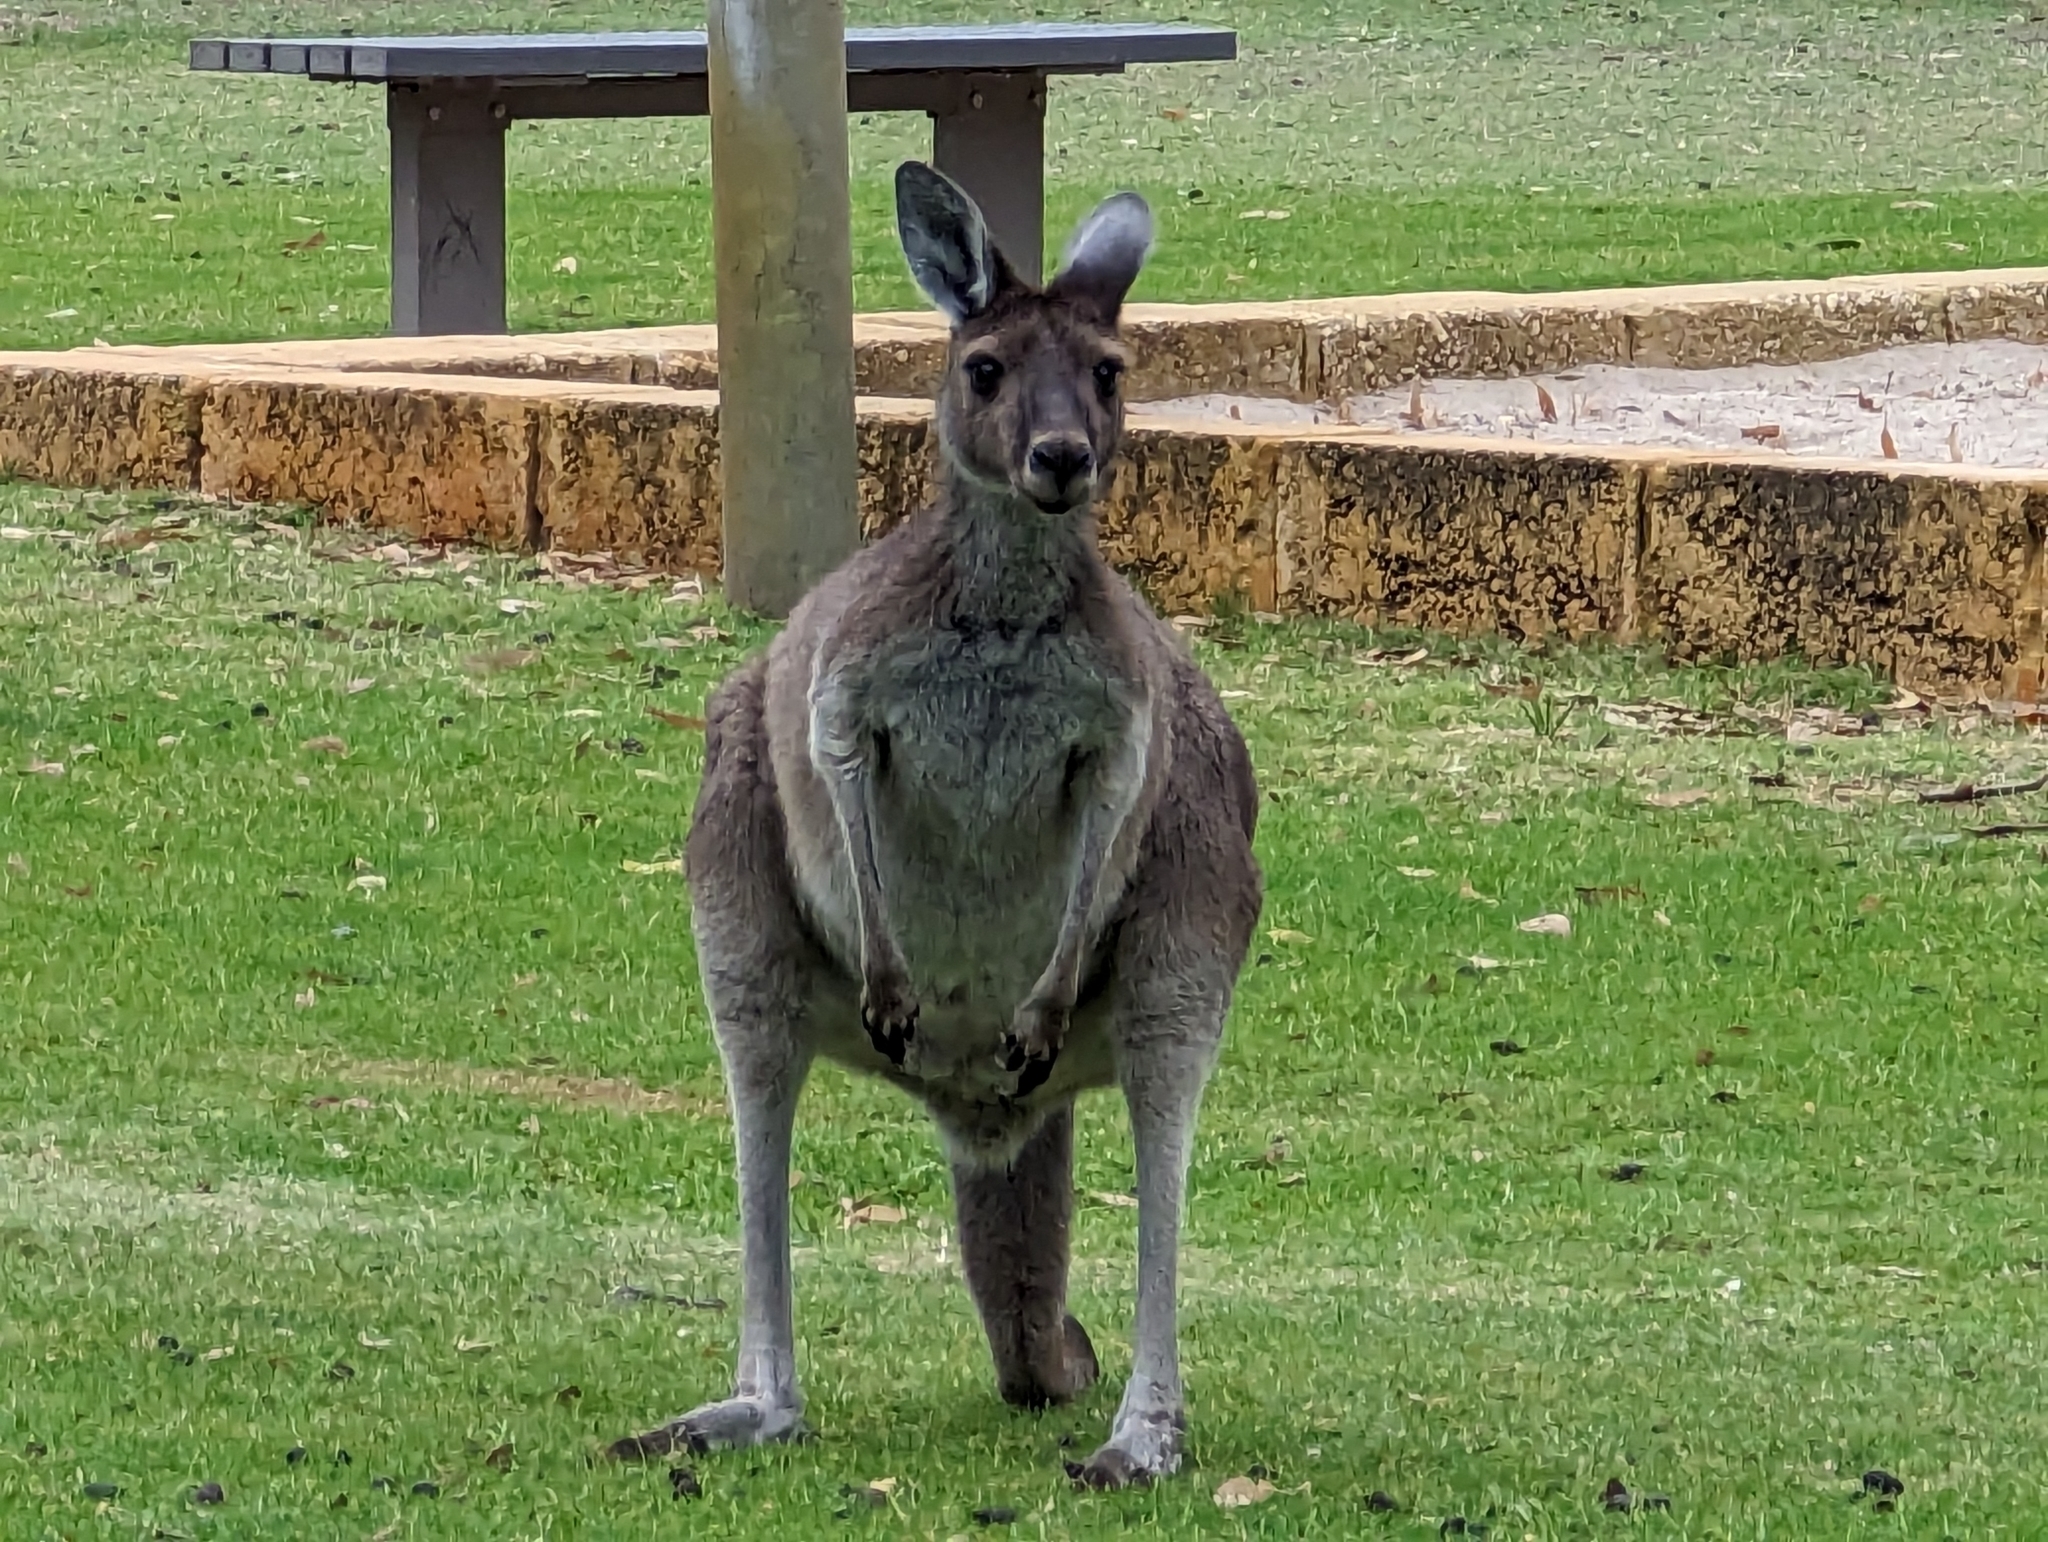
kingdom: Animalia
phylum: Chordata
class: Mammalia
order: Diprotodontia
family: Macropodidae
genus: Macropus
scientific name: Macropus fuliginosus
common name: Western grey kangaroo
